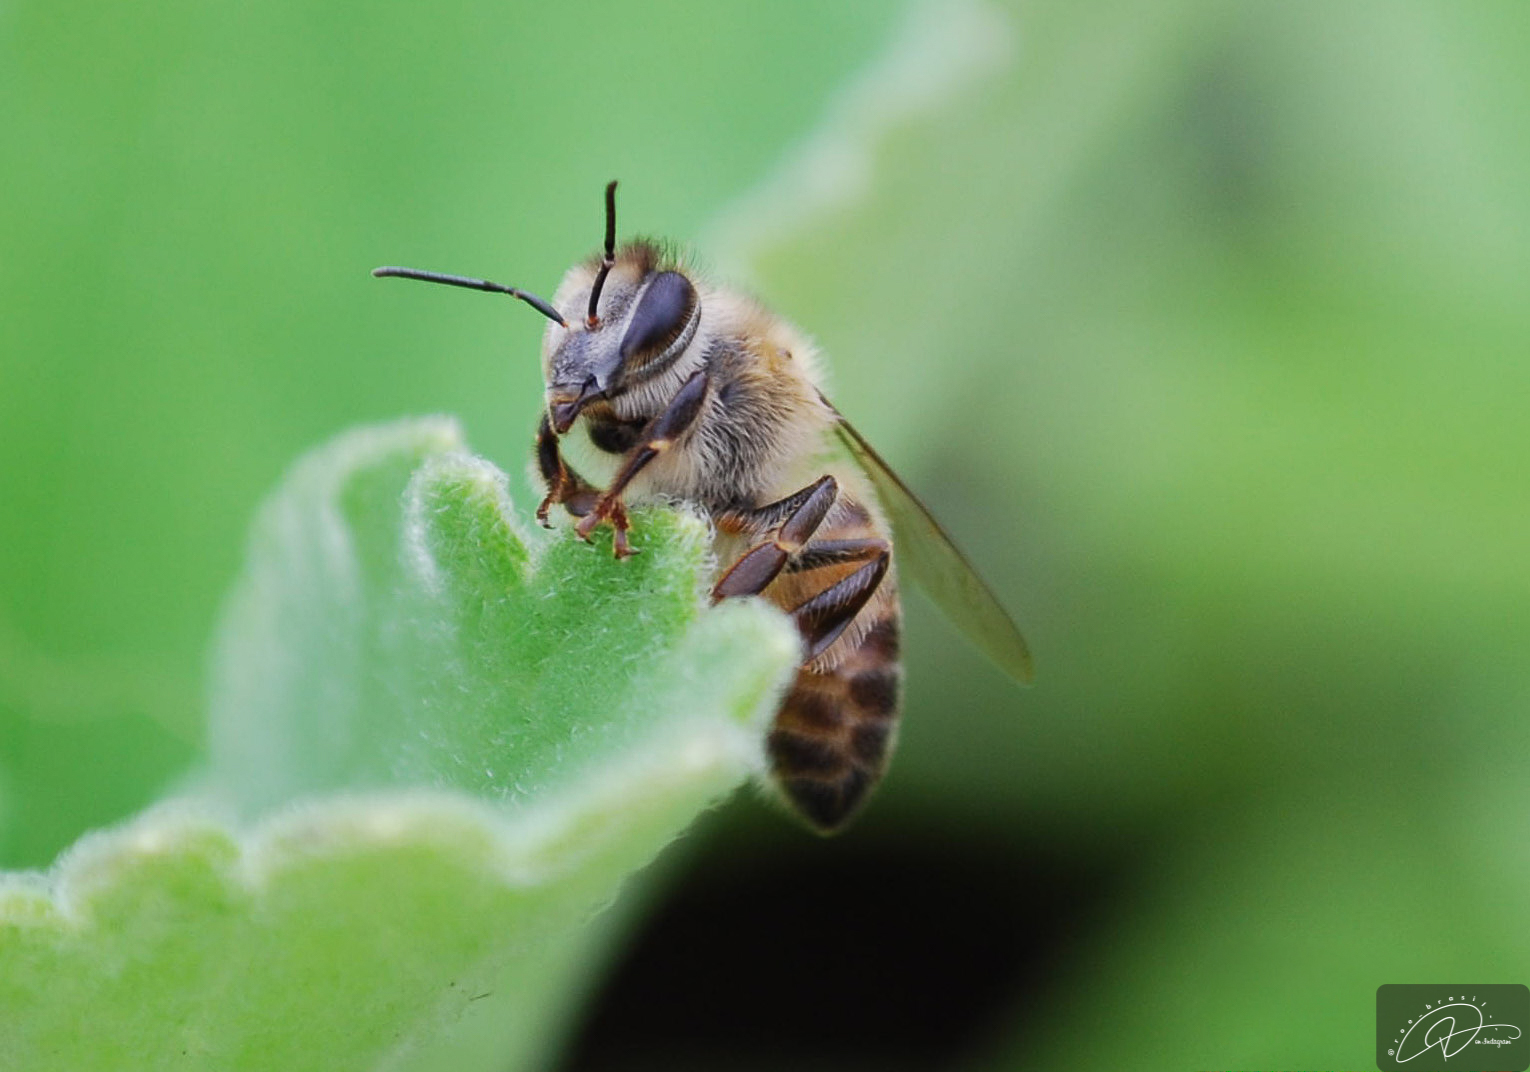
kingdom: Animalia
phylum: Arthropoda
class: Insecta
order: Hymenoptera
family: Apidae
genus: Apis
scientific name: Apis mellifera
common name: Honey bee
